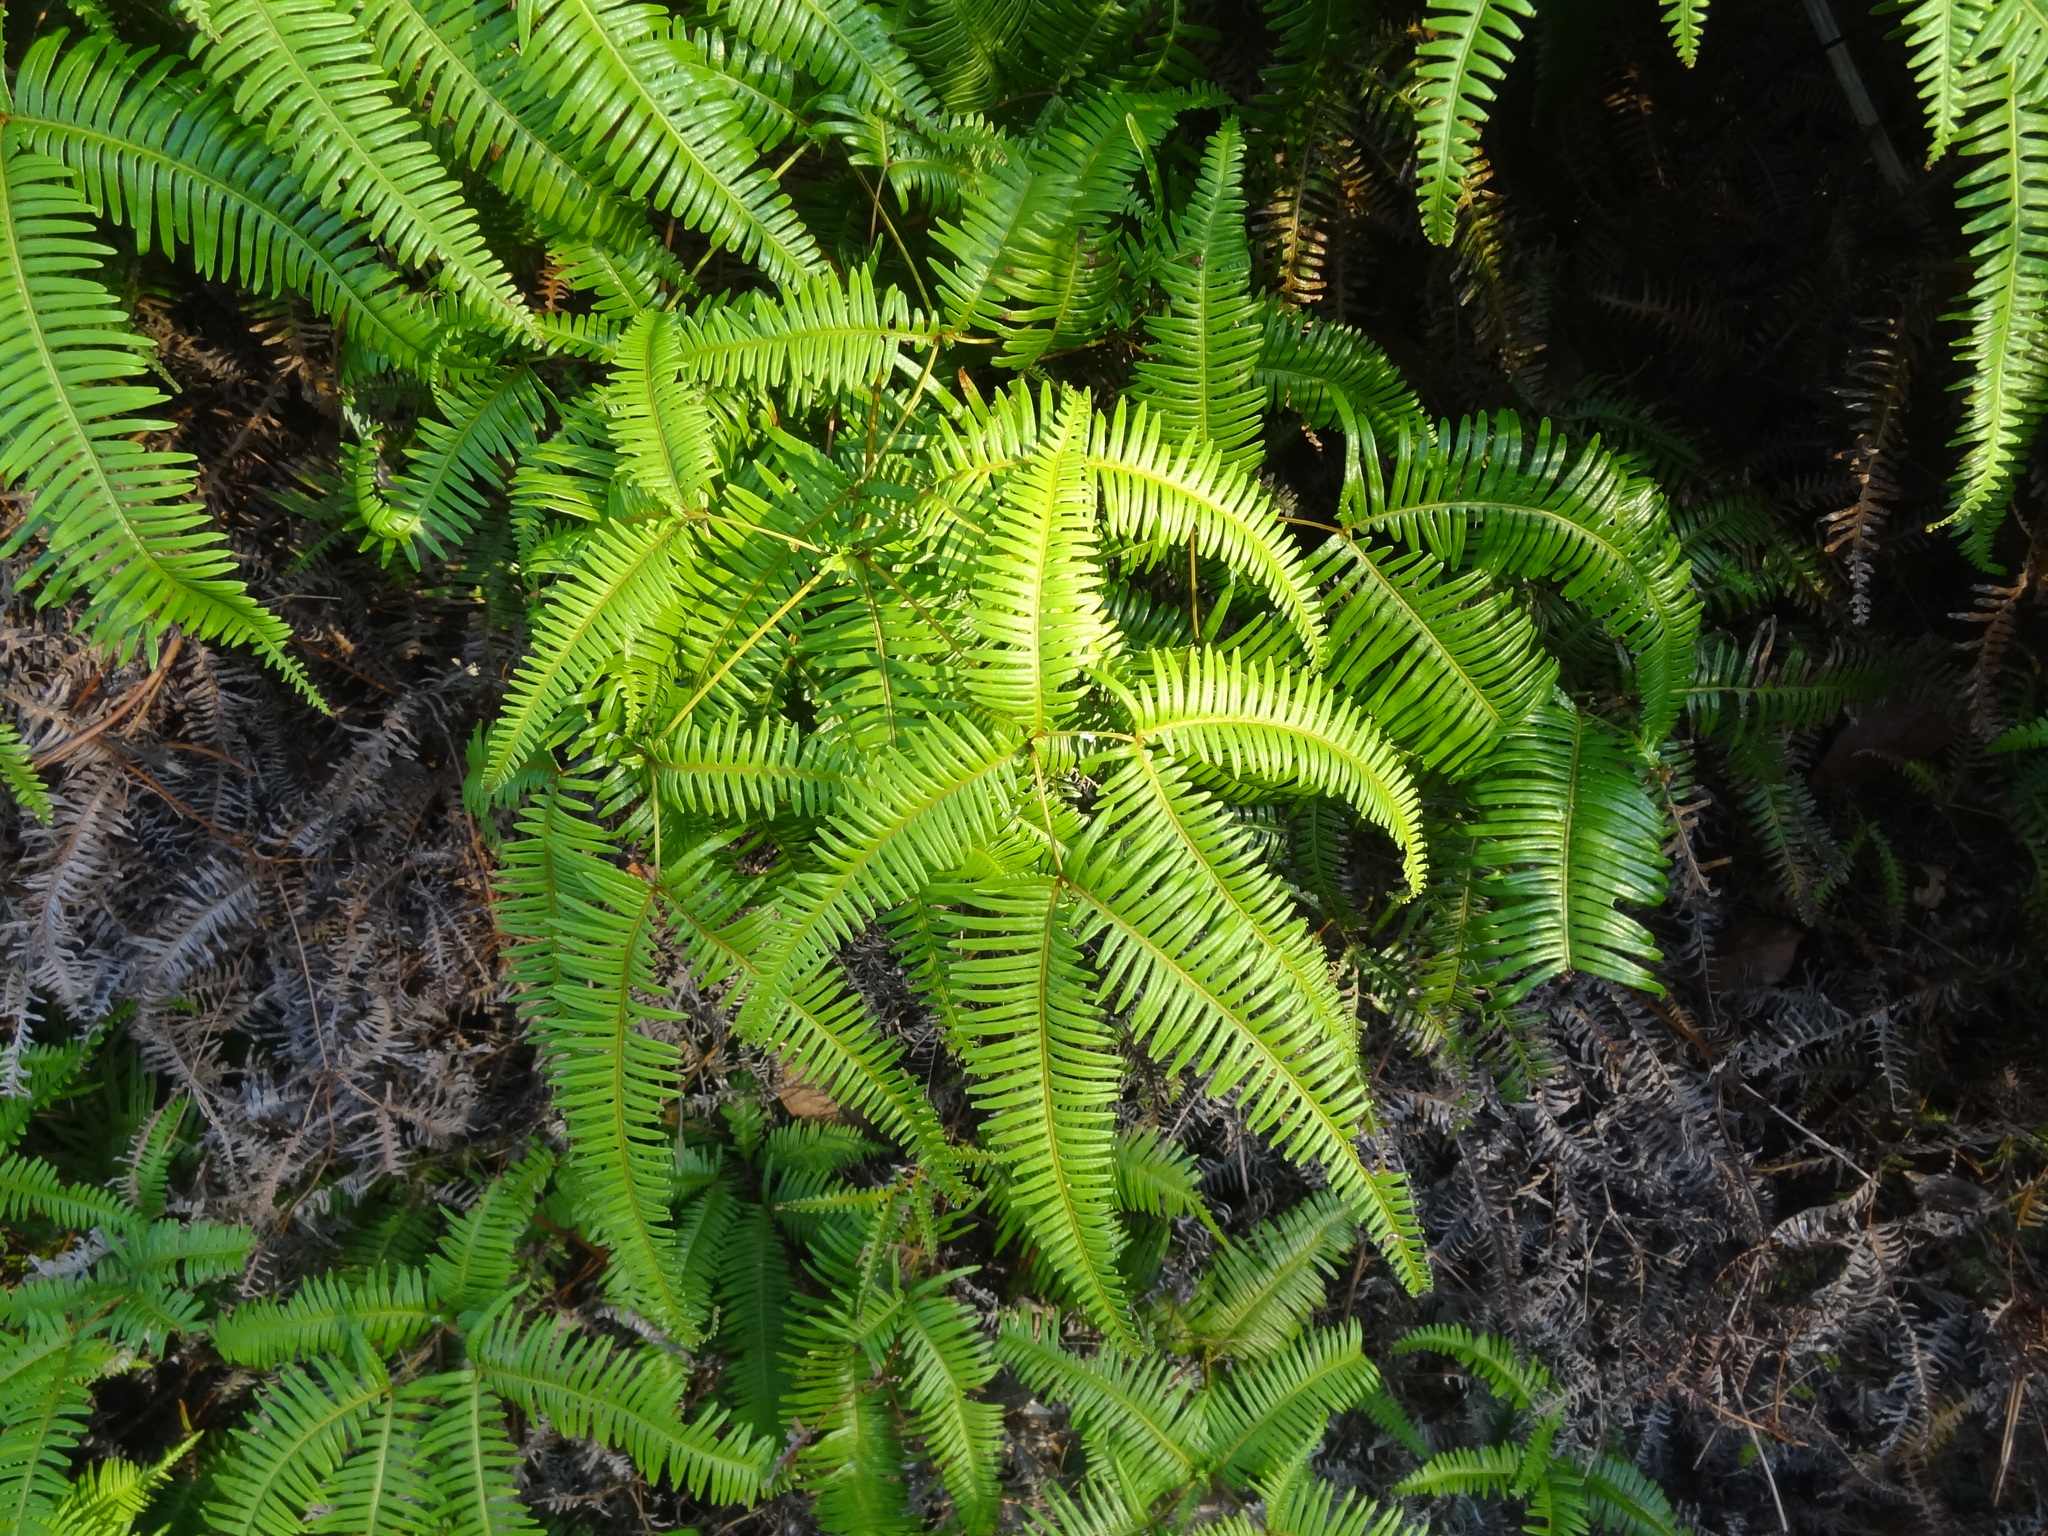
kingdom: Plantae
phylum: Tracheophyta
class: Polypodiopsida
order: Gleicheniales
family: Gleicheniaceae
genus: Dicranopteris
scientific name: Dicranopteris linearis
